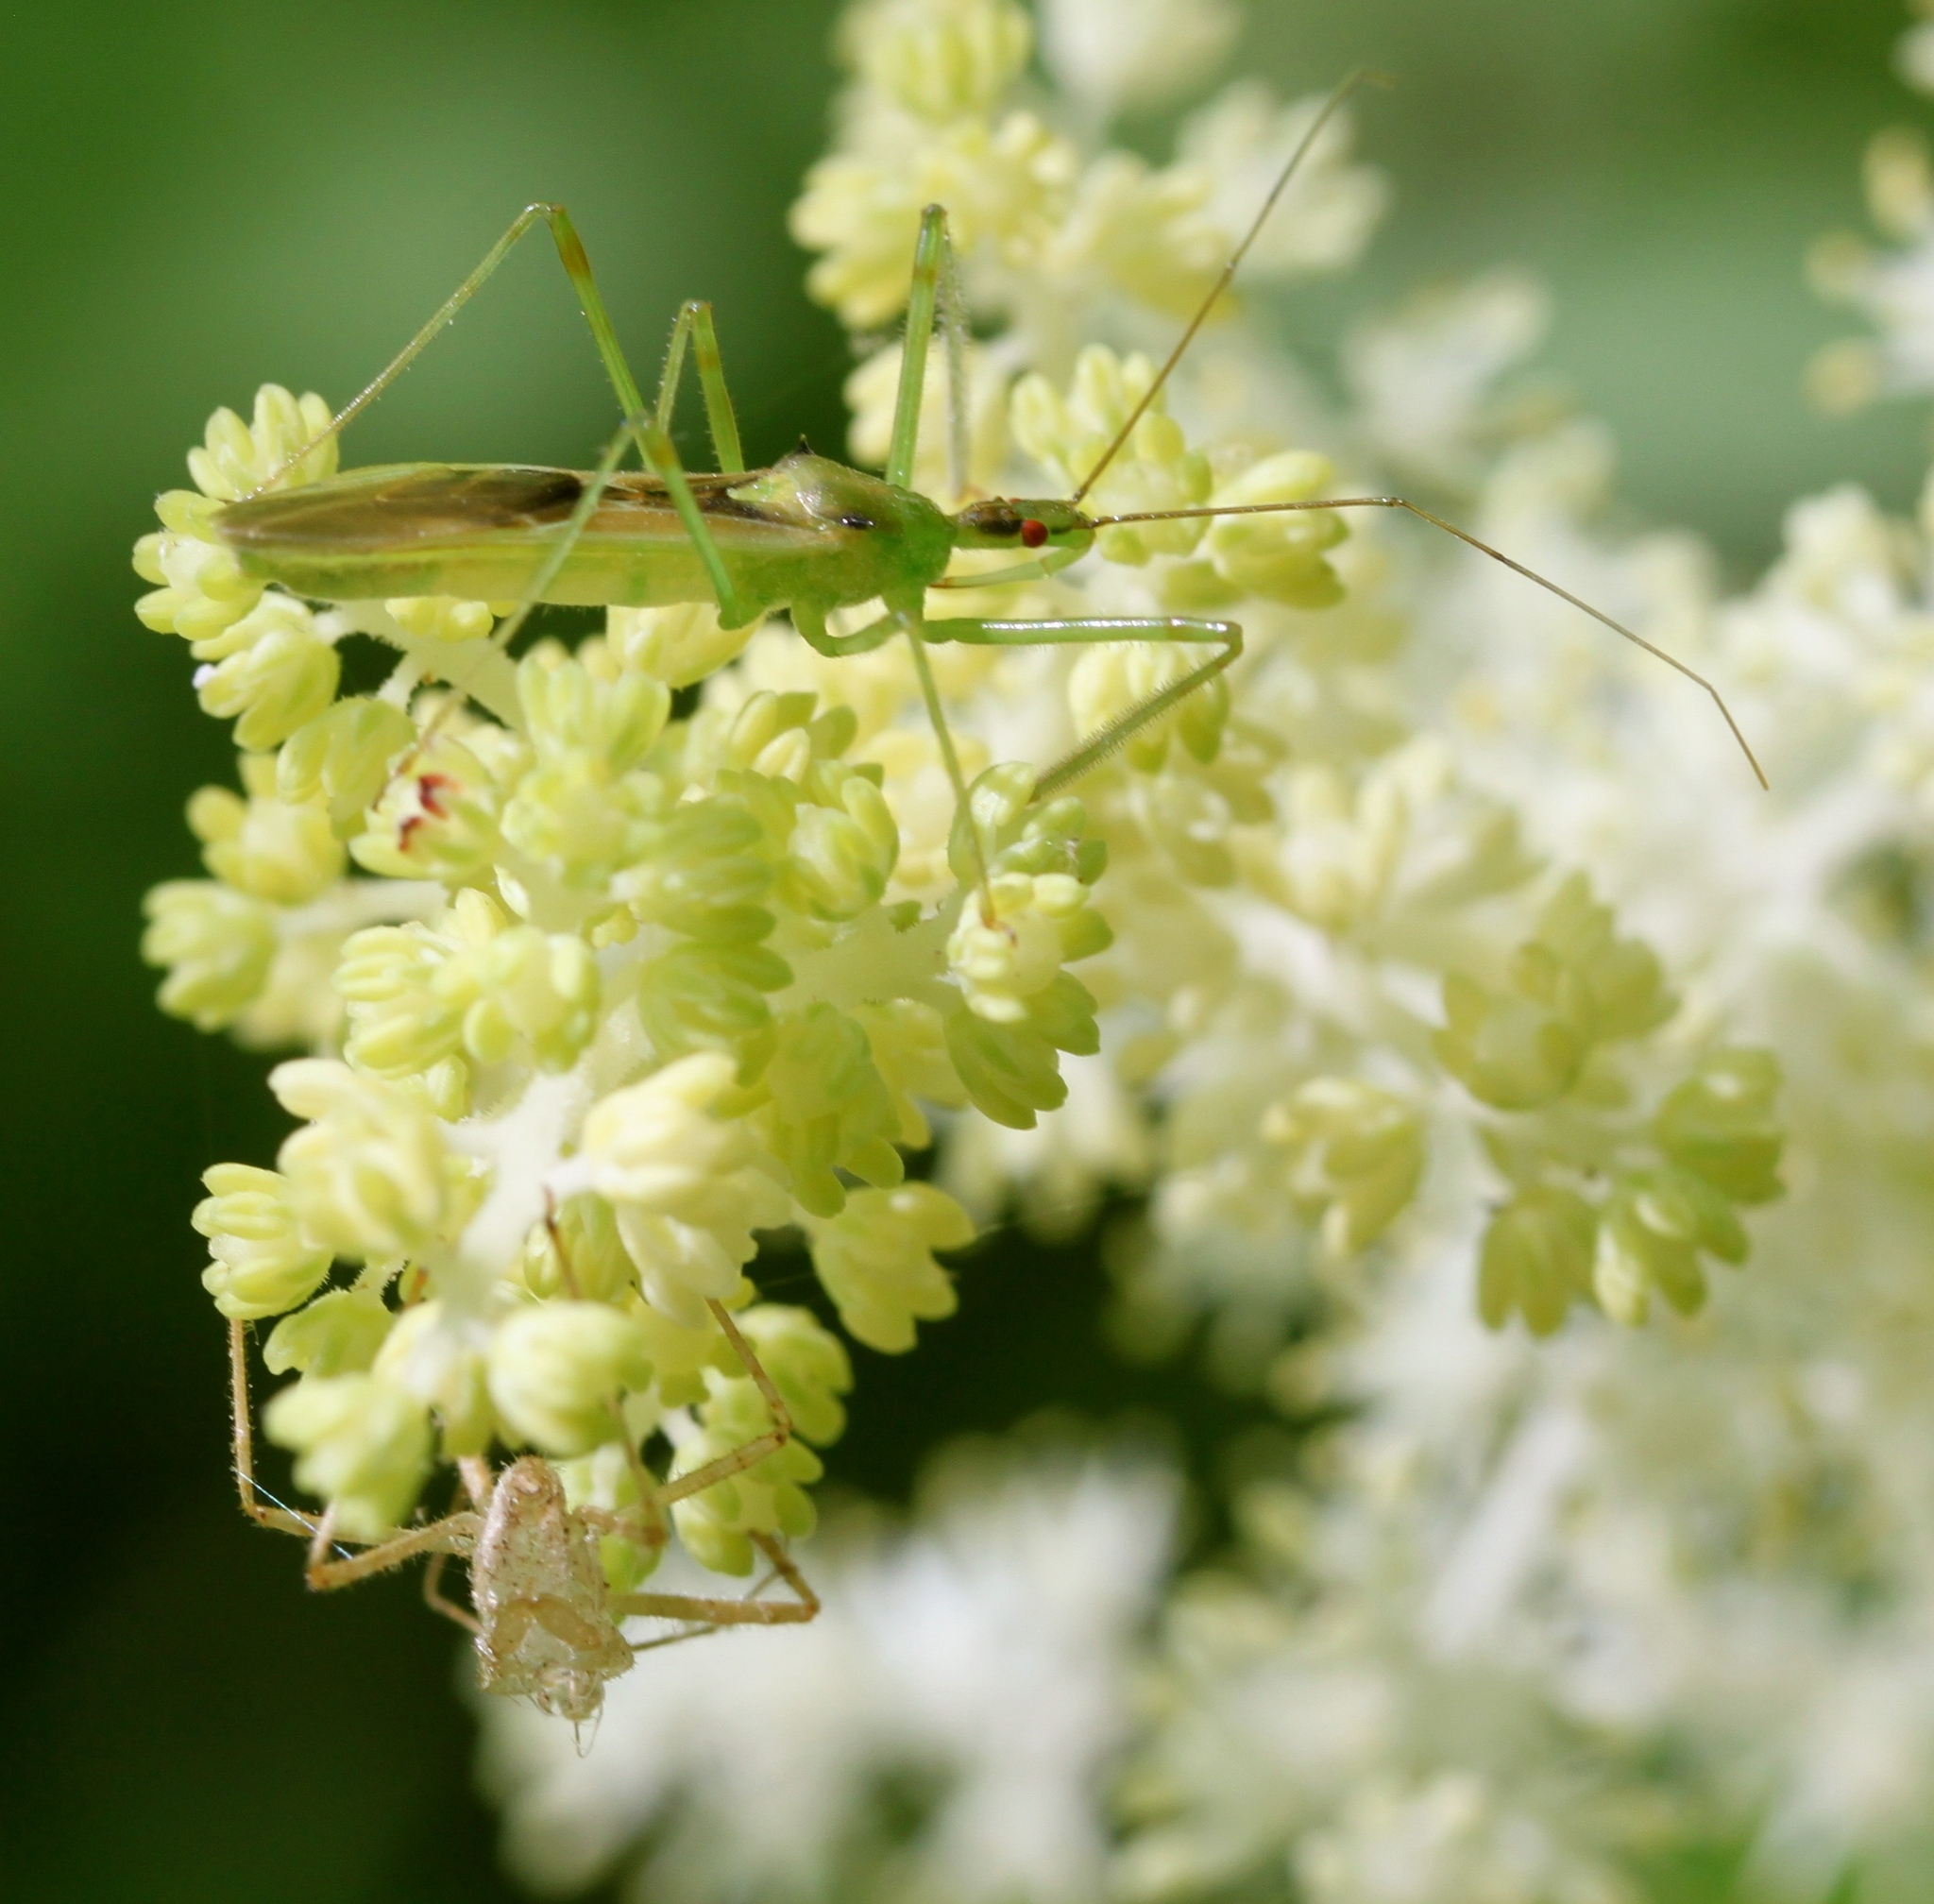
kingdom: Animalia
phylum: Arthropoda
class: Insecta
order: Hemiptera
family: Reduviidae
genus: Zelus
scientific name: Zelus luridus
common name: Pale green assassin bug
